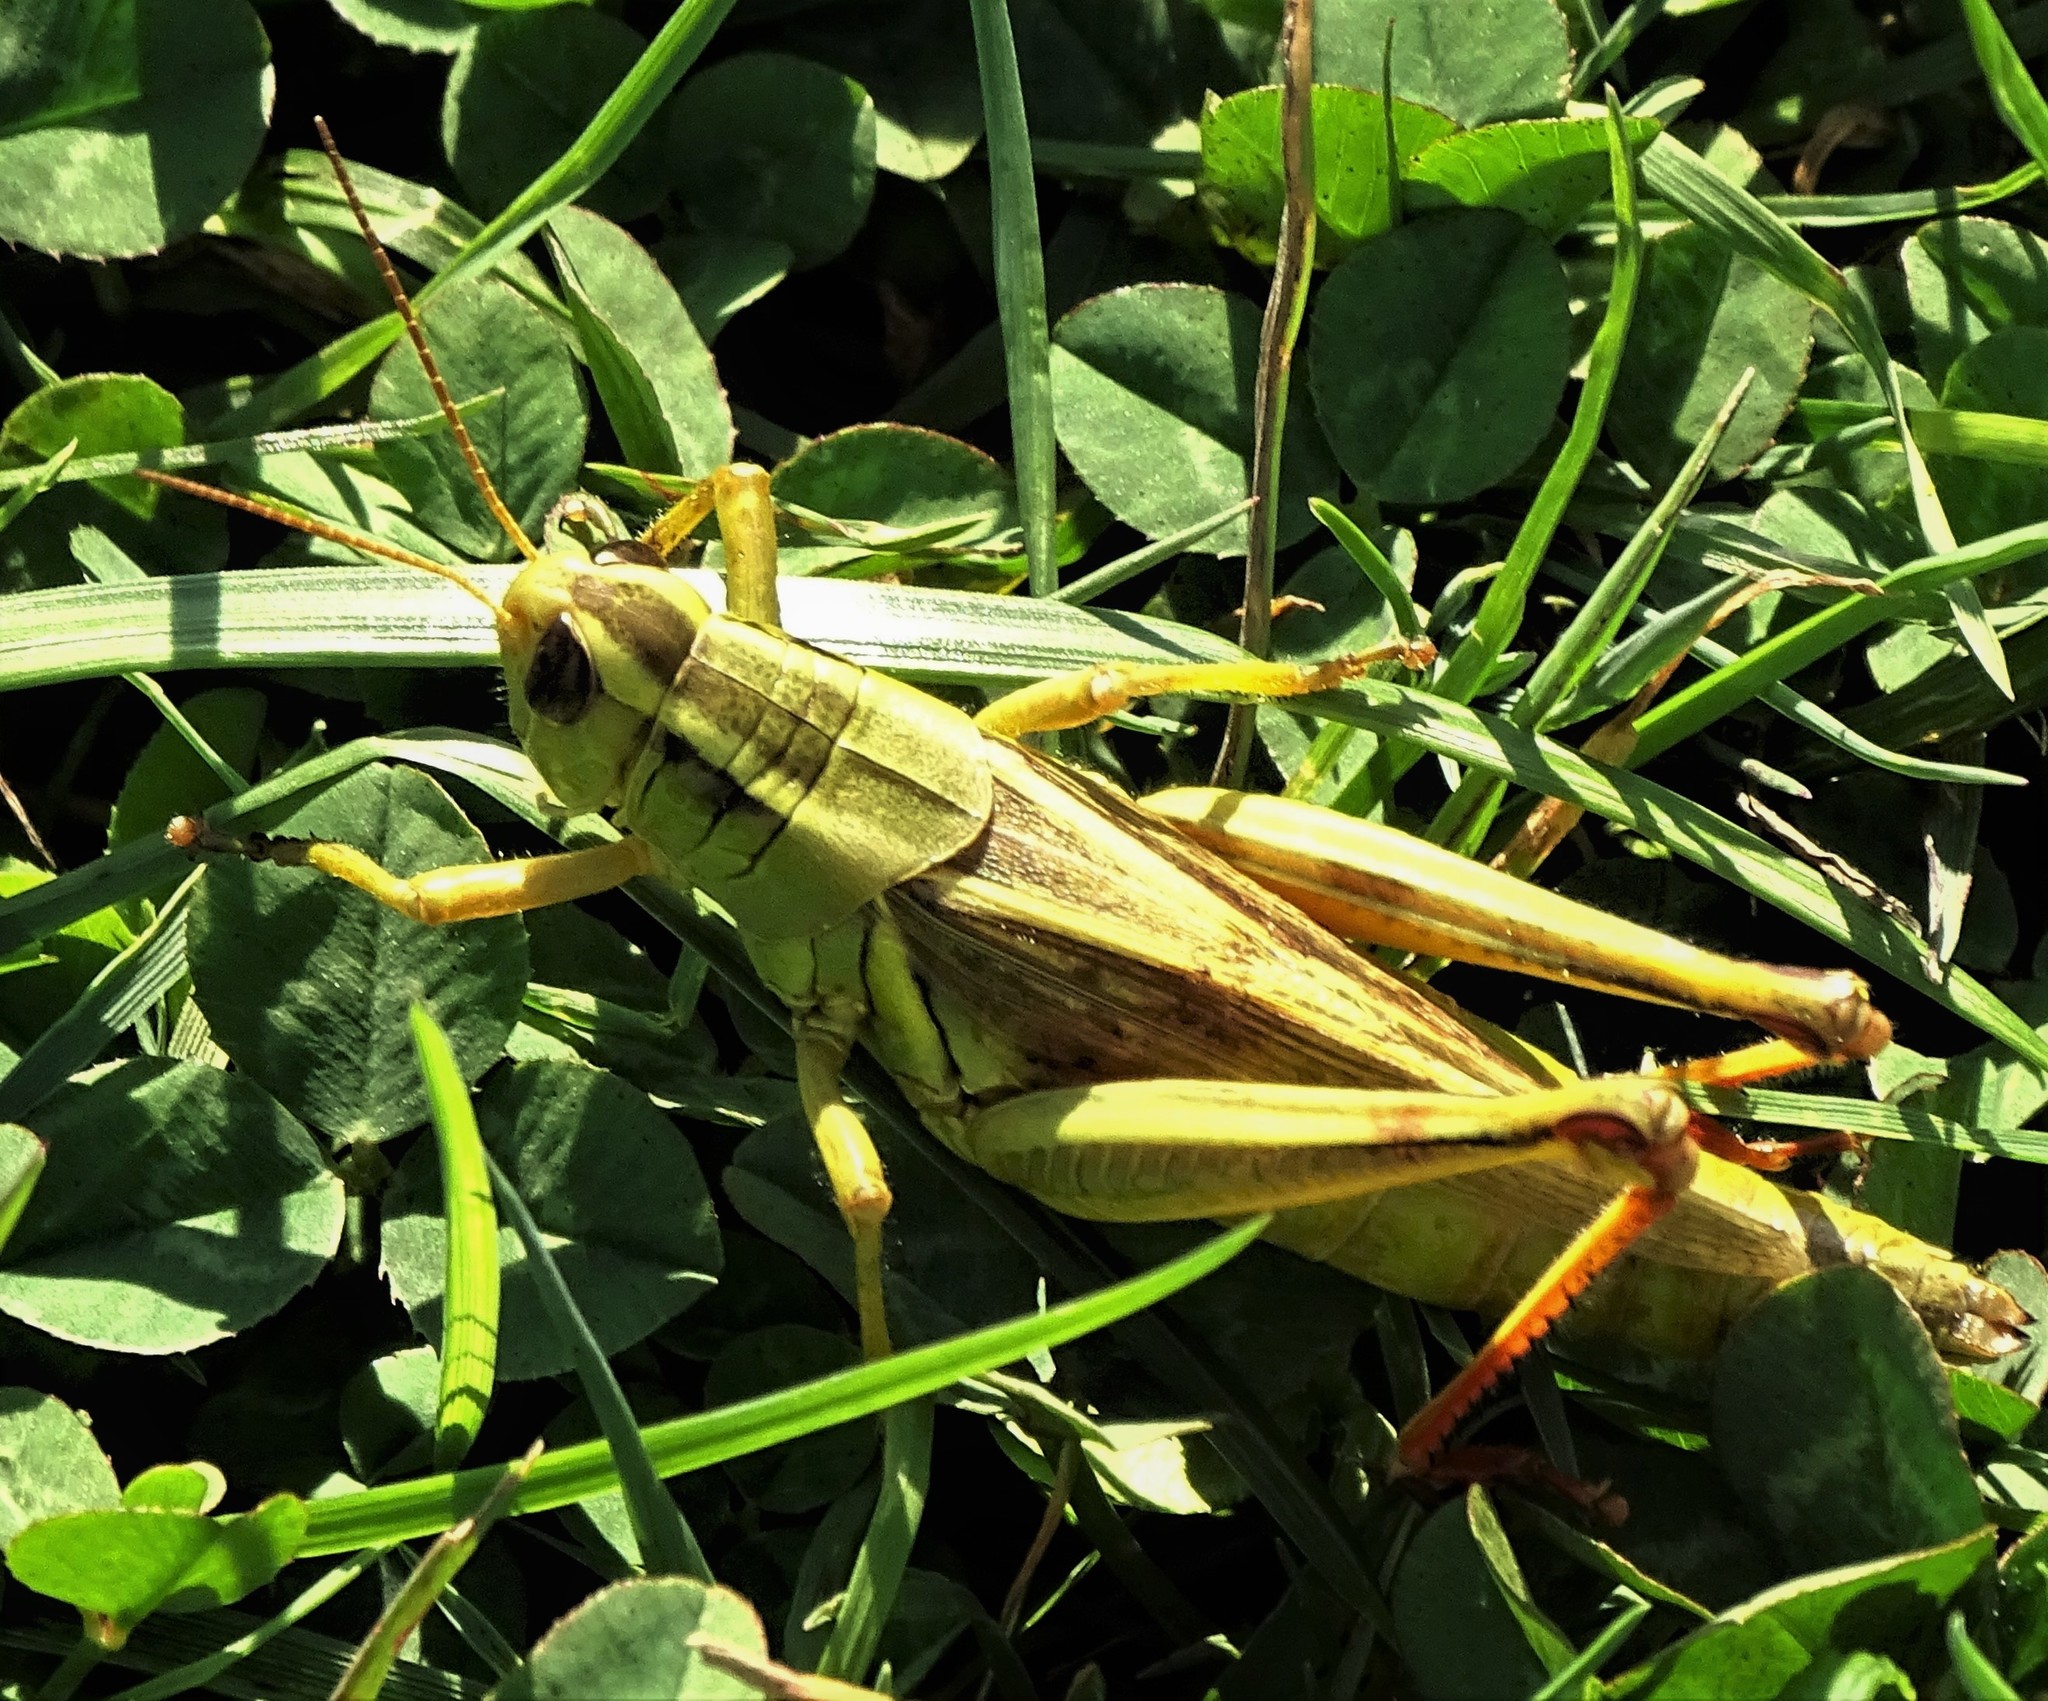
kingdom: Animalia
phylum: Arthropoda
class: Insecta
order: Orthoptera
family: Acrididae
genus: Melanoplus
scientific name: Melanoplus bivittatus
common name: Two-striped grasshopper
